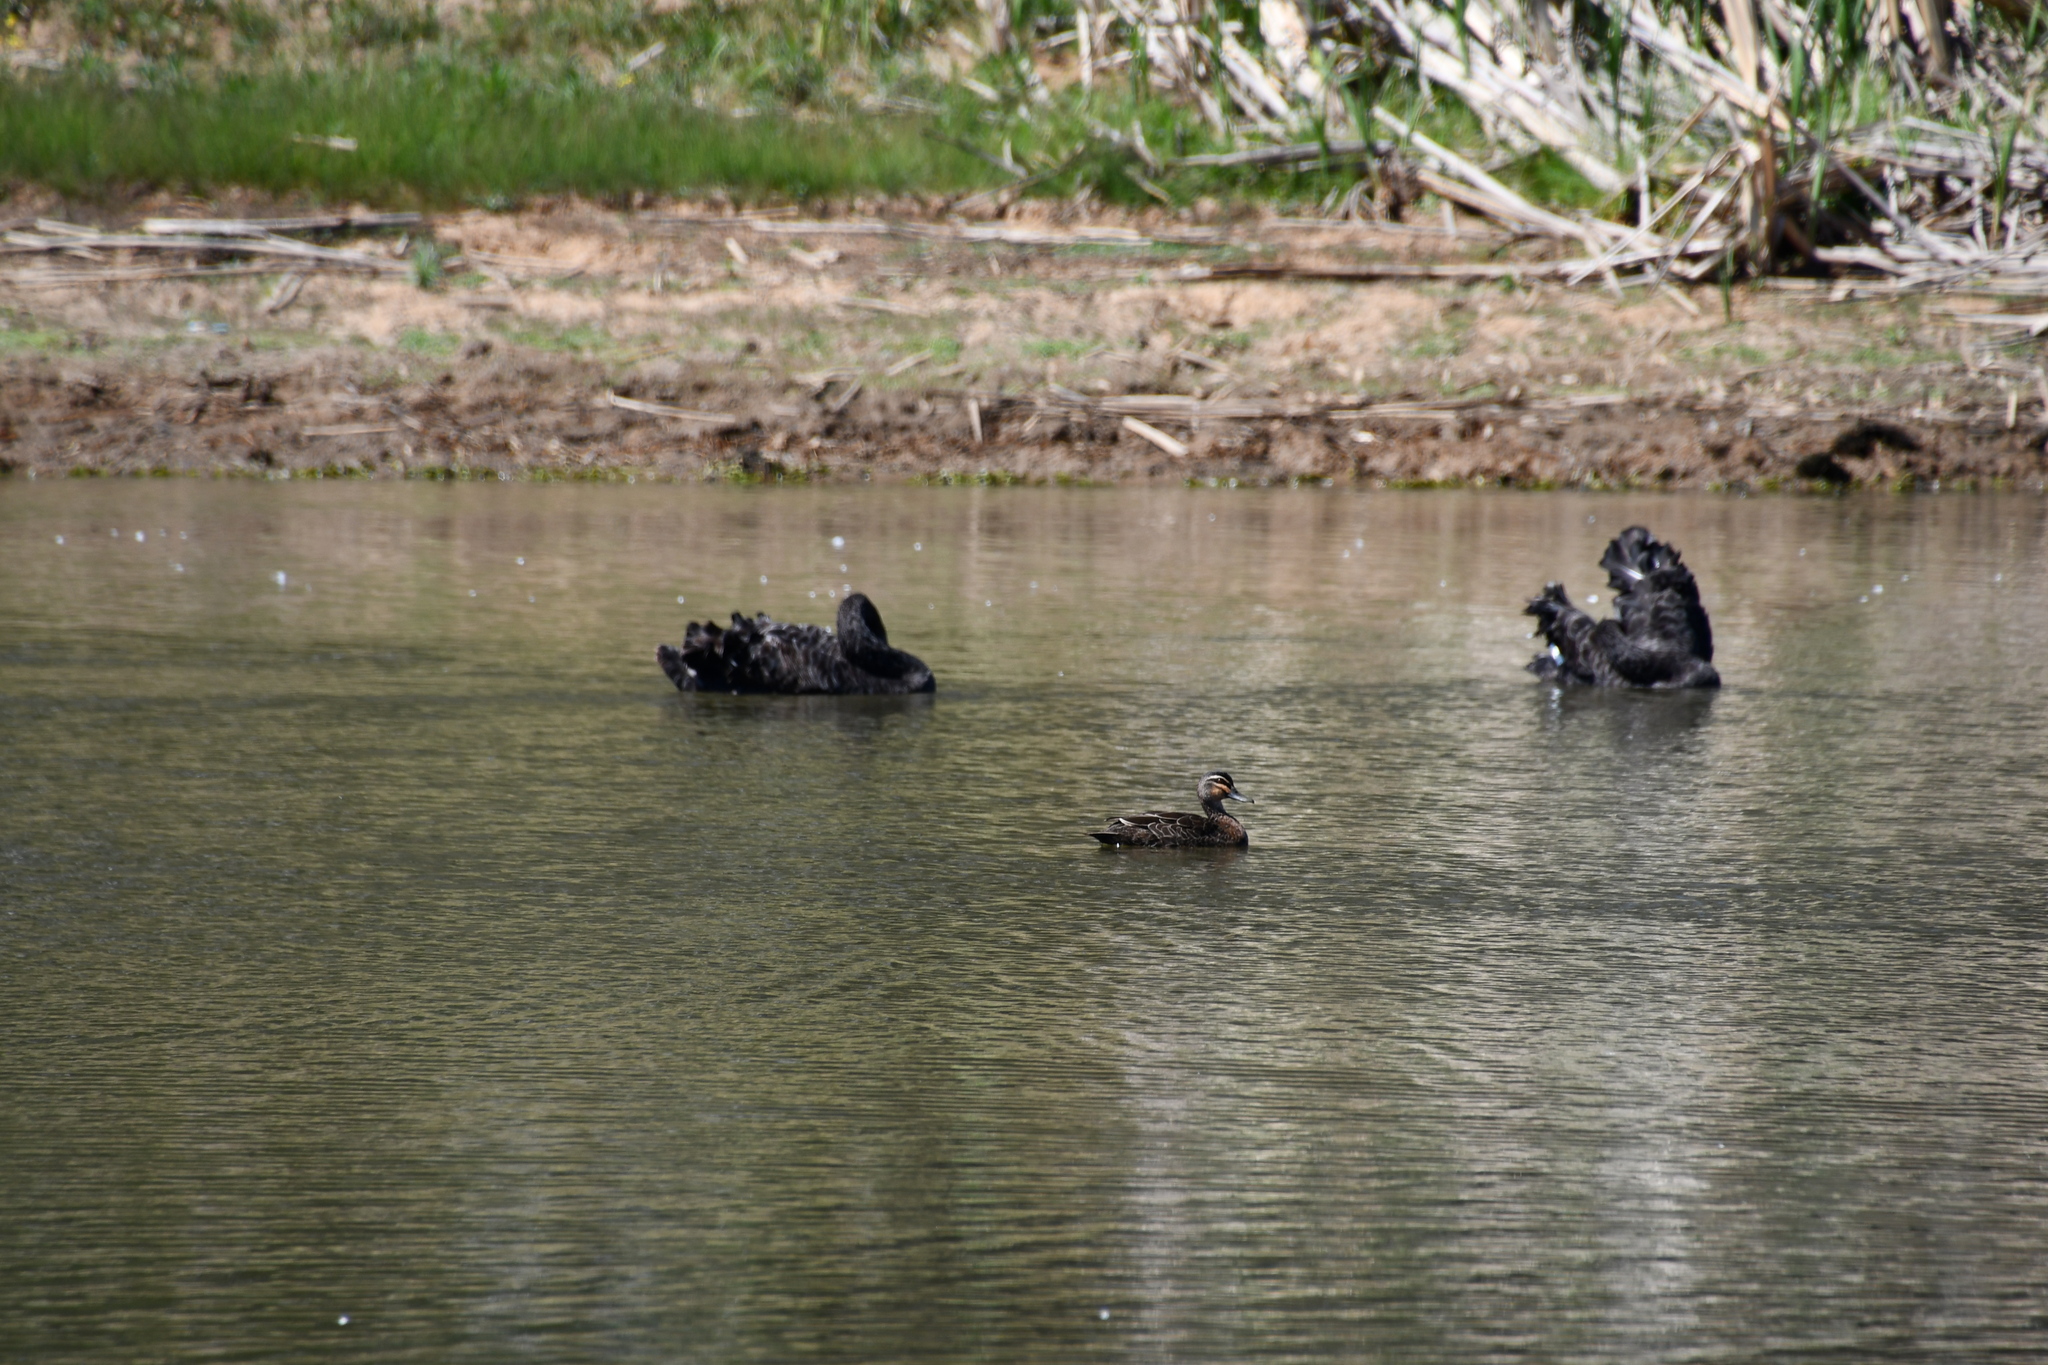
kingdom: Animalia
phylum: Chordata
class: Aves
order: Anseriformes
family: Anatidae
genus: Anas
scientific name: Anas superciliosa
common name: Pacific black duck
